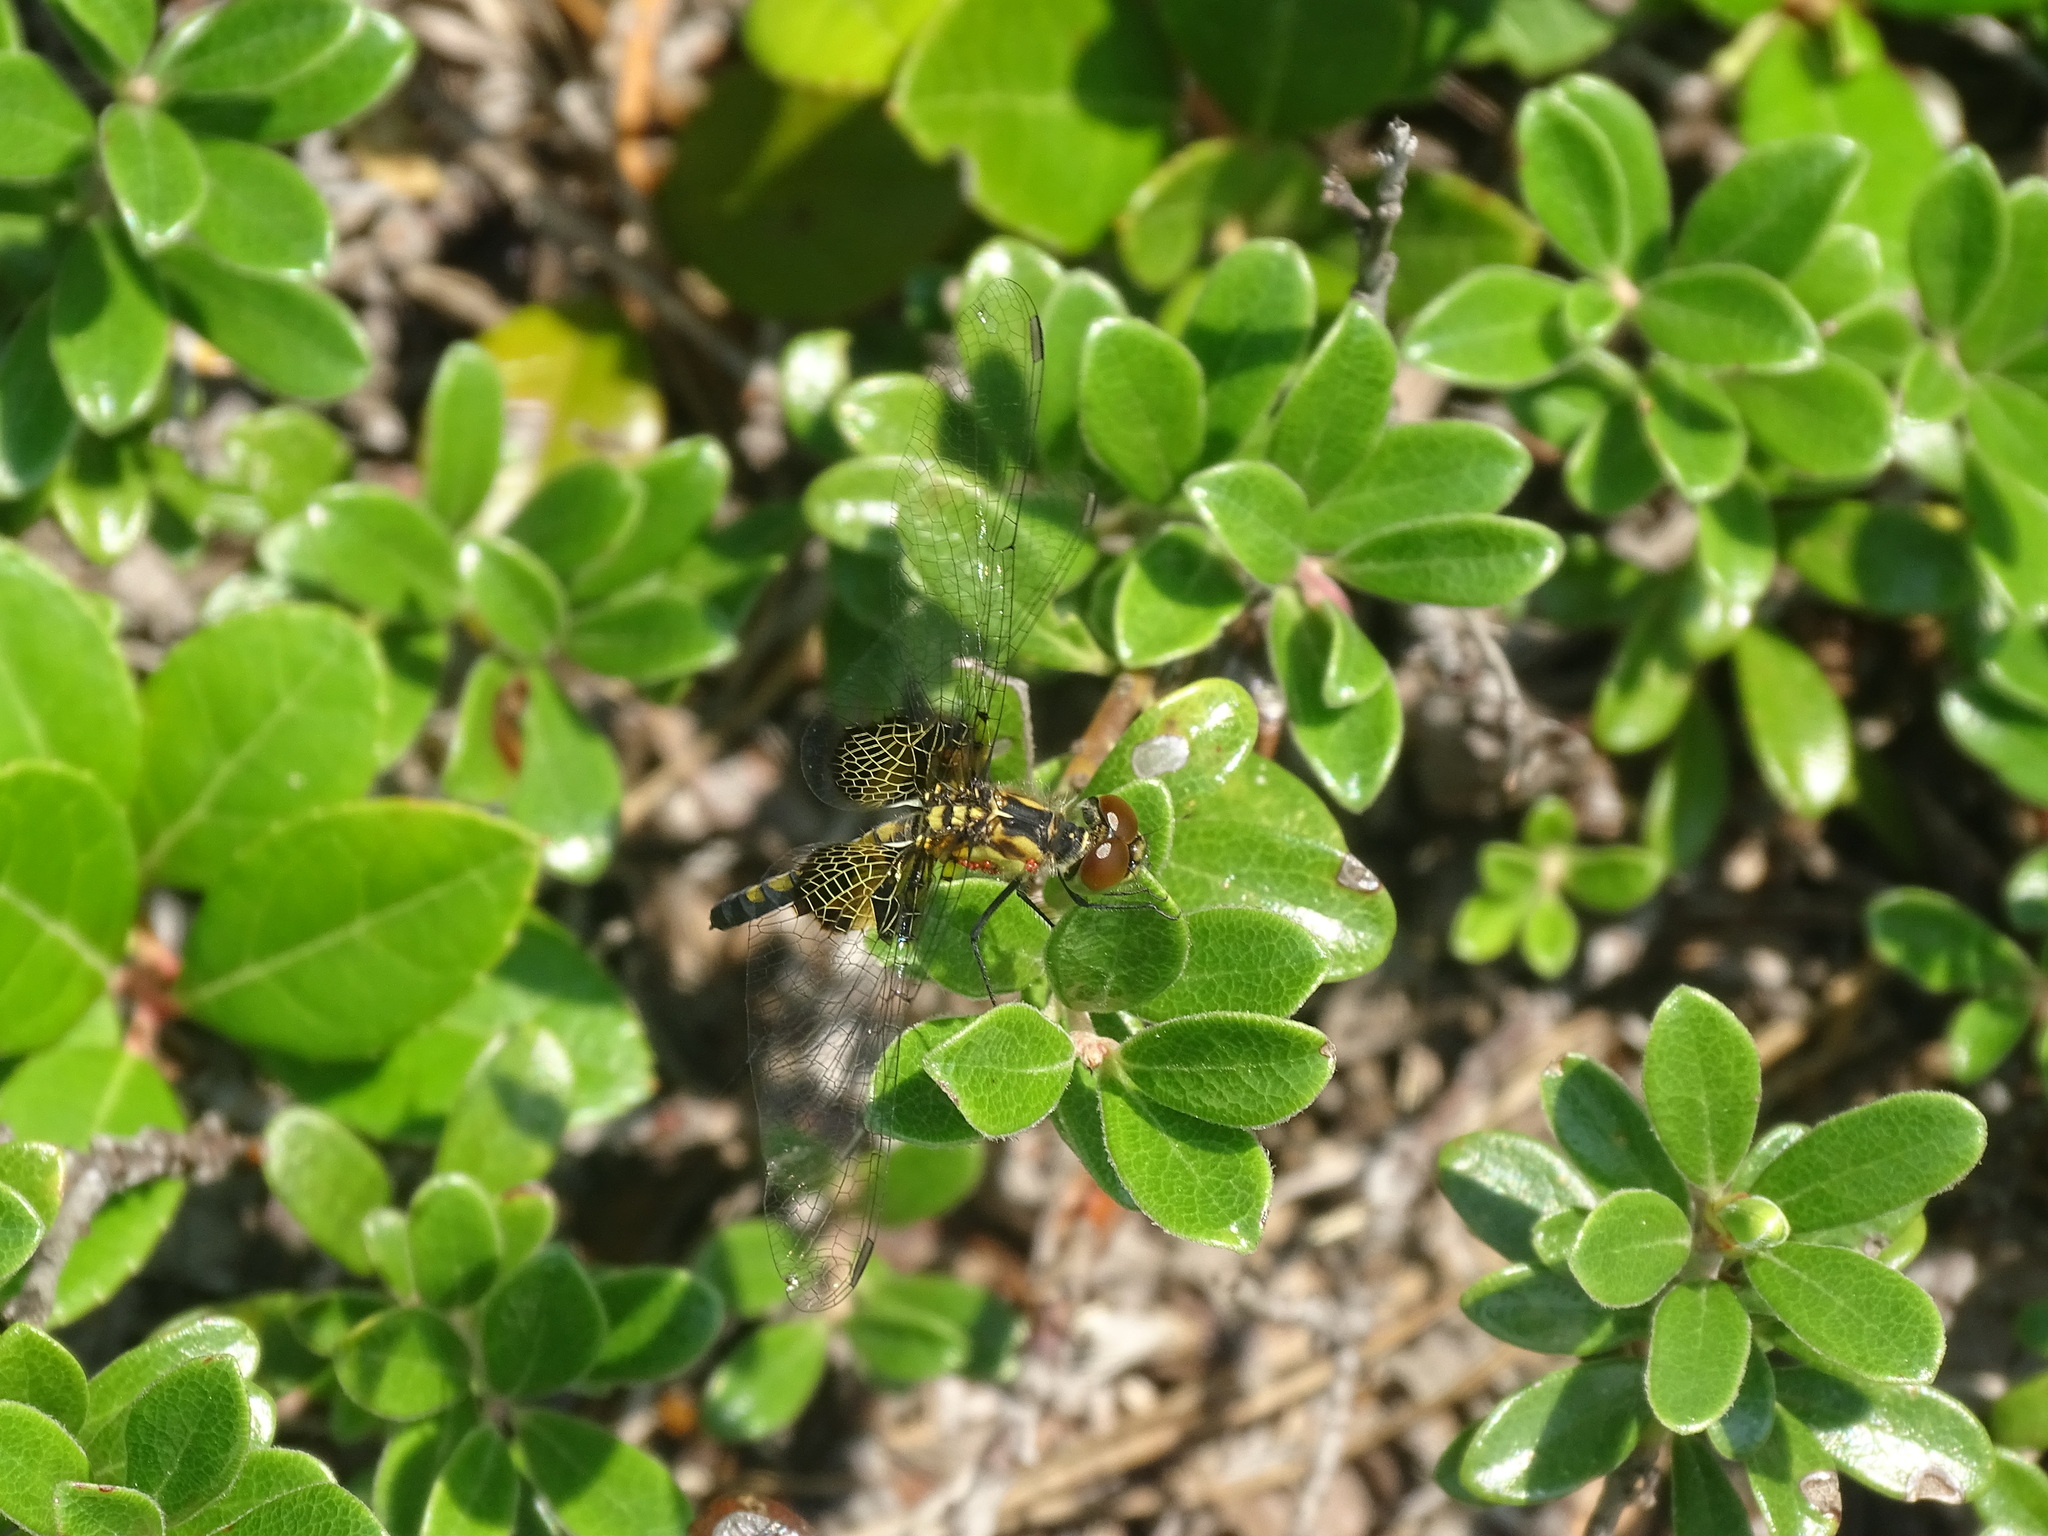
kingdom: Animalia
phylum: Arthropoda
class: Insecta
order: Odonata
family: Libellulidae
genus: Celithemis
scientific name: Celithemis martha
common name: Martha's pennant
